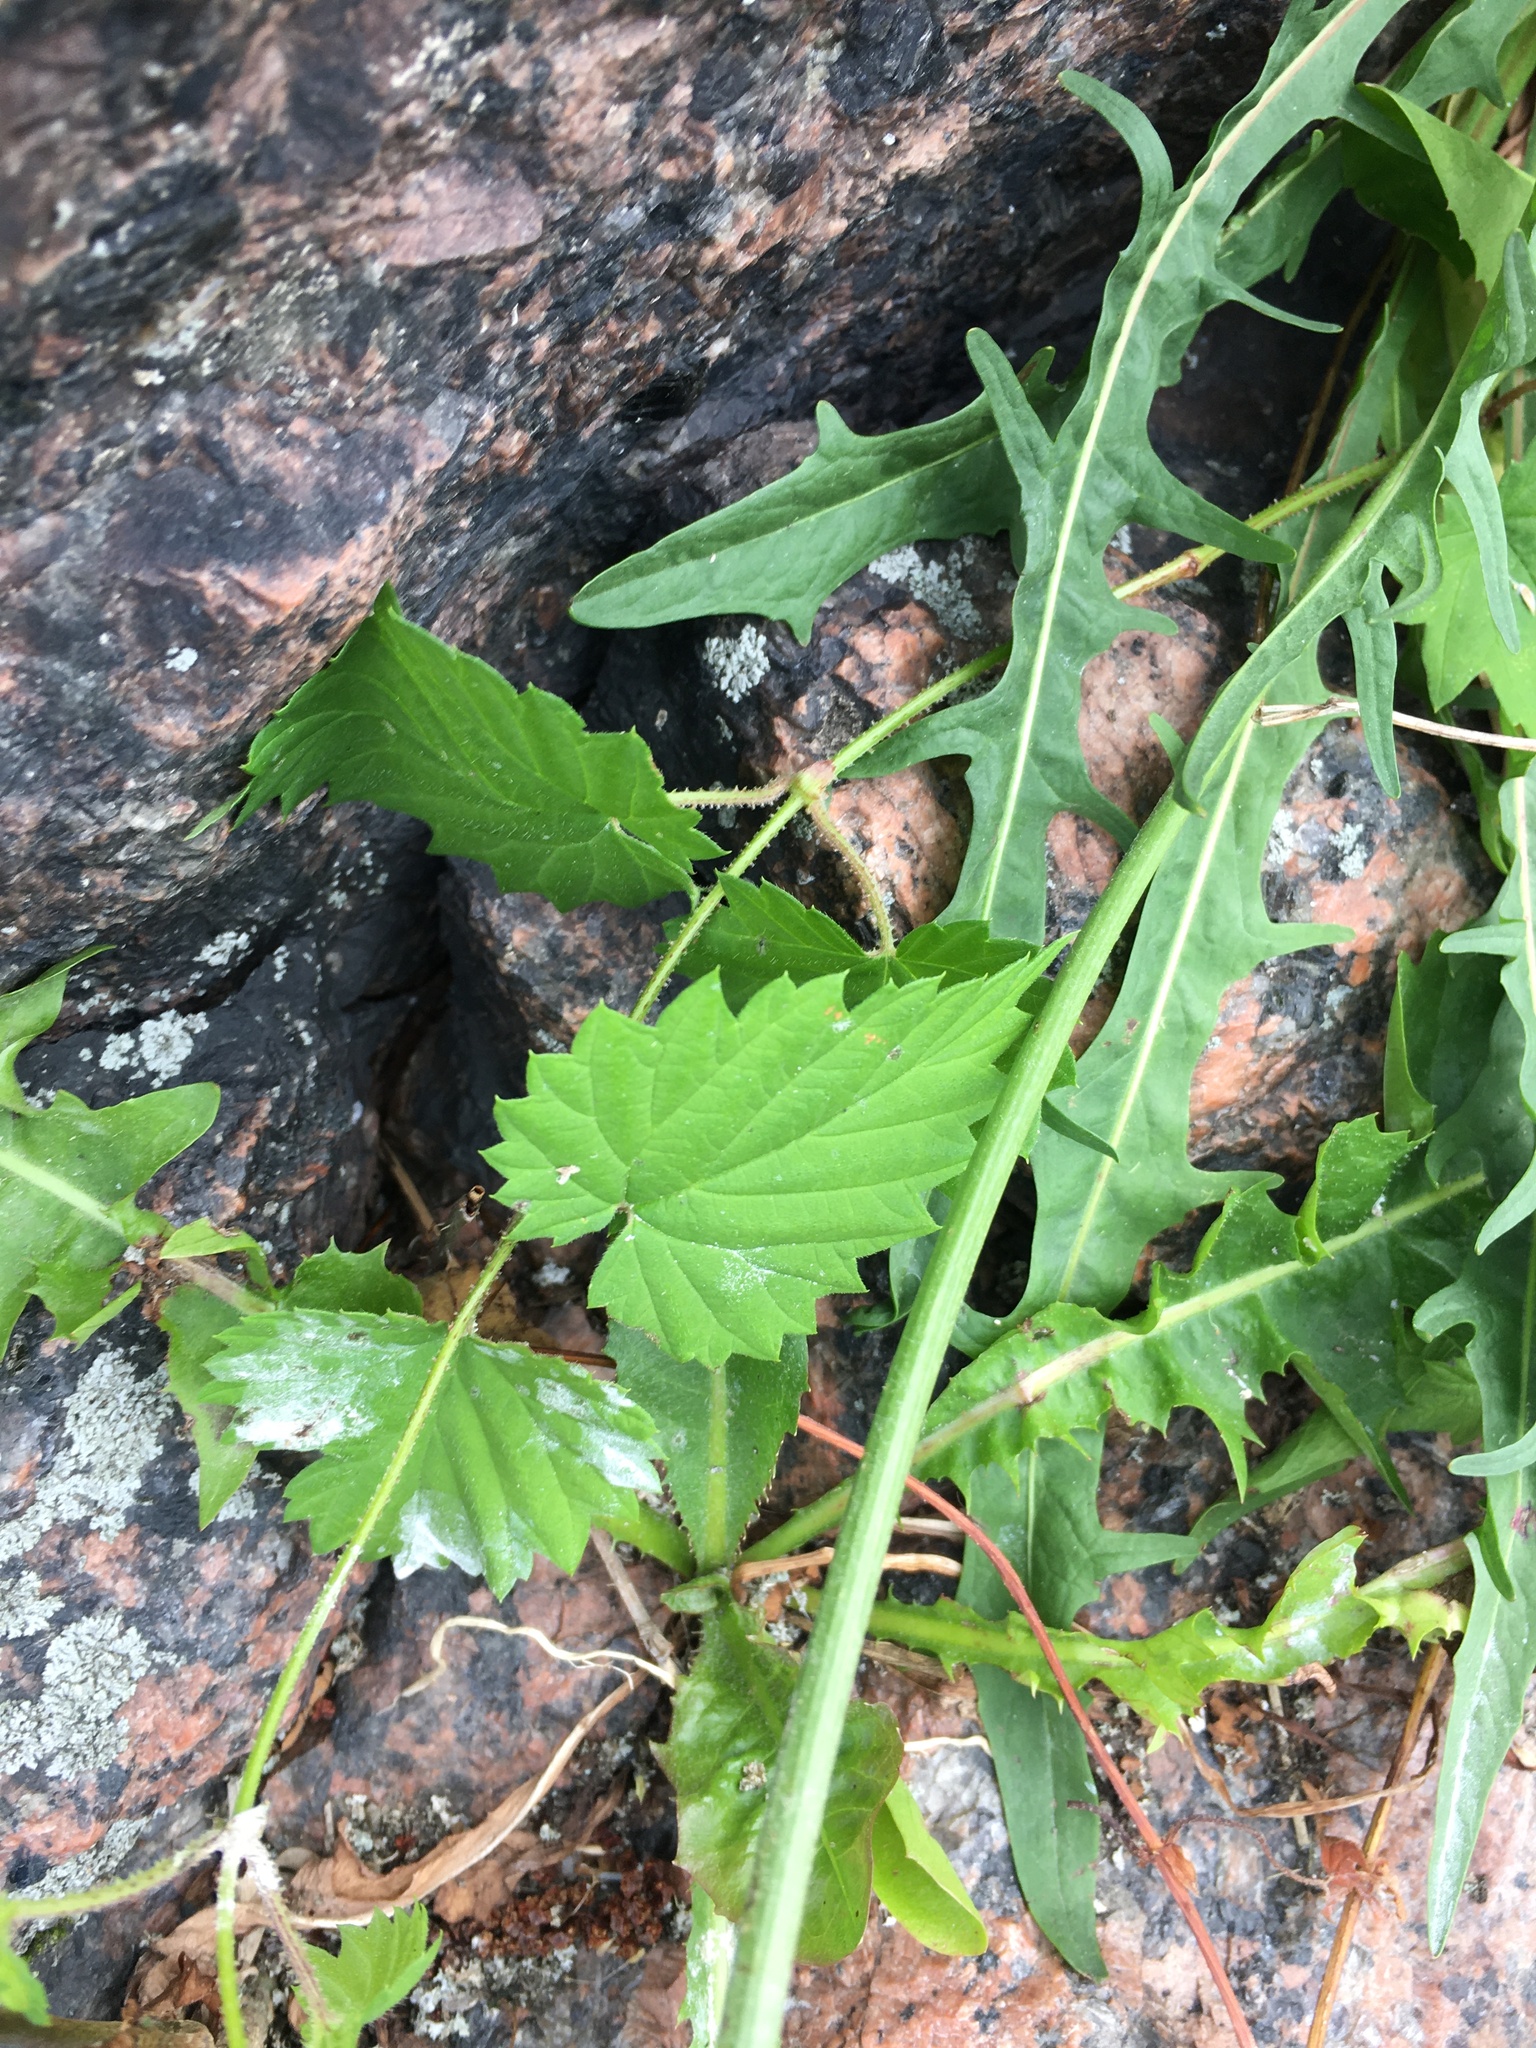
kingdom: Plantae
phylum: Tracheophyta
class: Magnoliopsida
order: Rosales
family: Cannabaceae
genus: Humulus
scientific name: Humulus lupulus
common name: Hop
